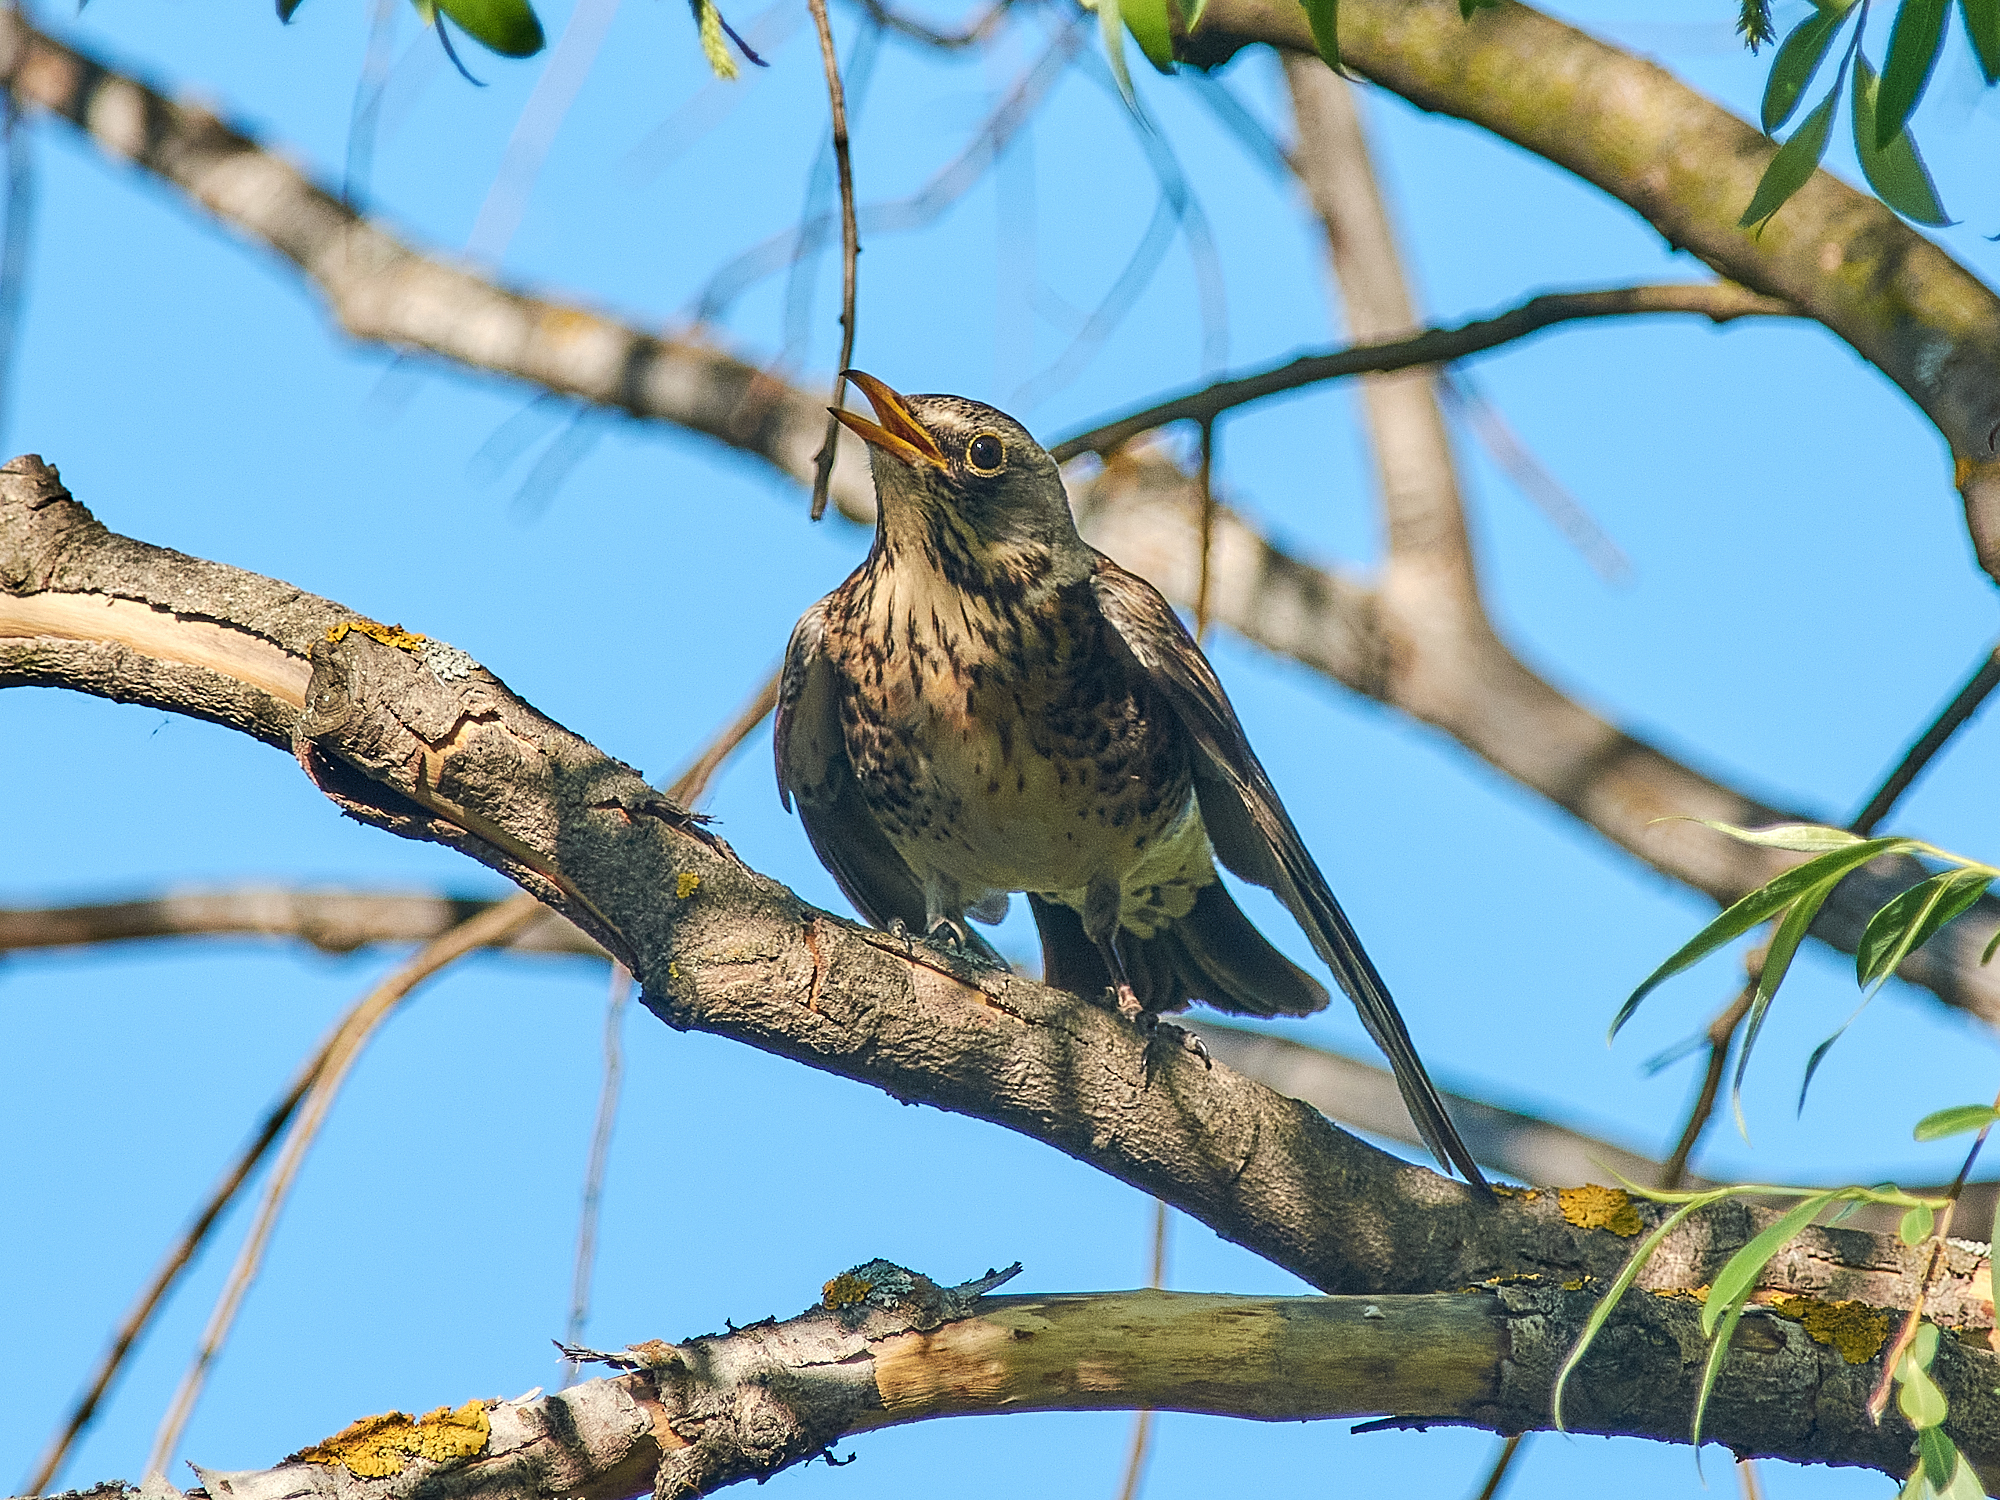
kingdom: Animalia
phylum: Chordata
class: Aves
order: Passeriformes
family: Turdidae
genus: Turdus
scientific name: Turdus pilaris
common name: Fieldfare
